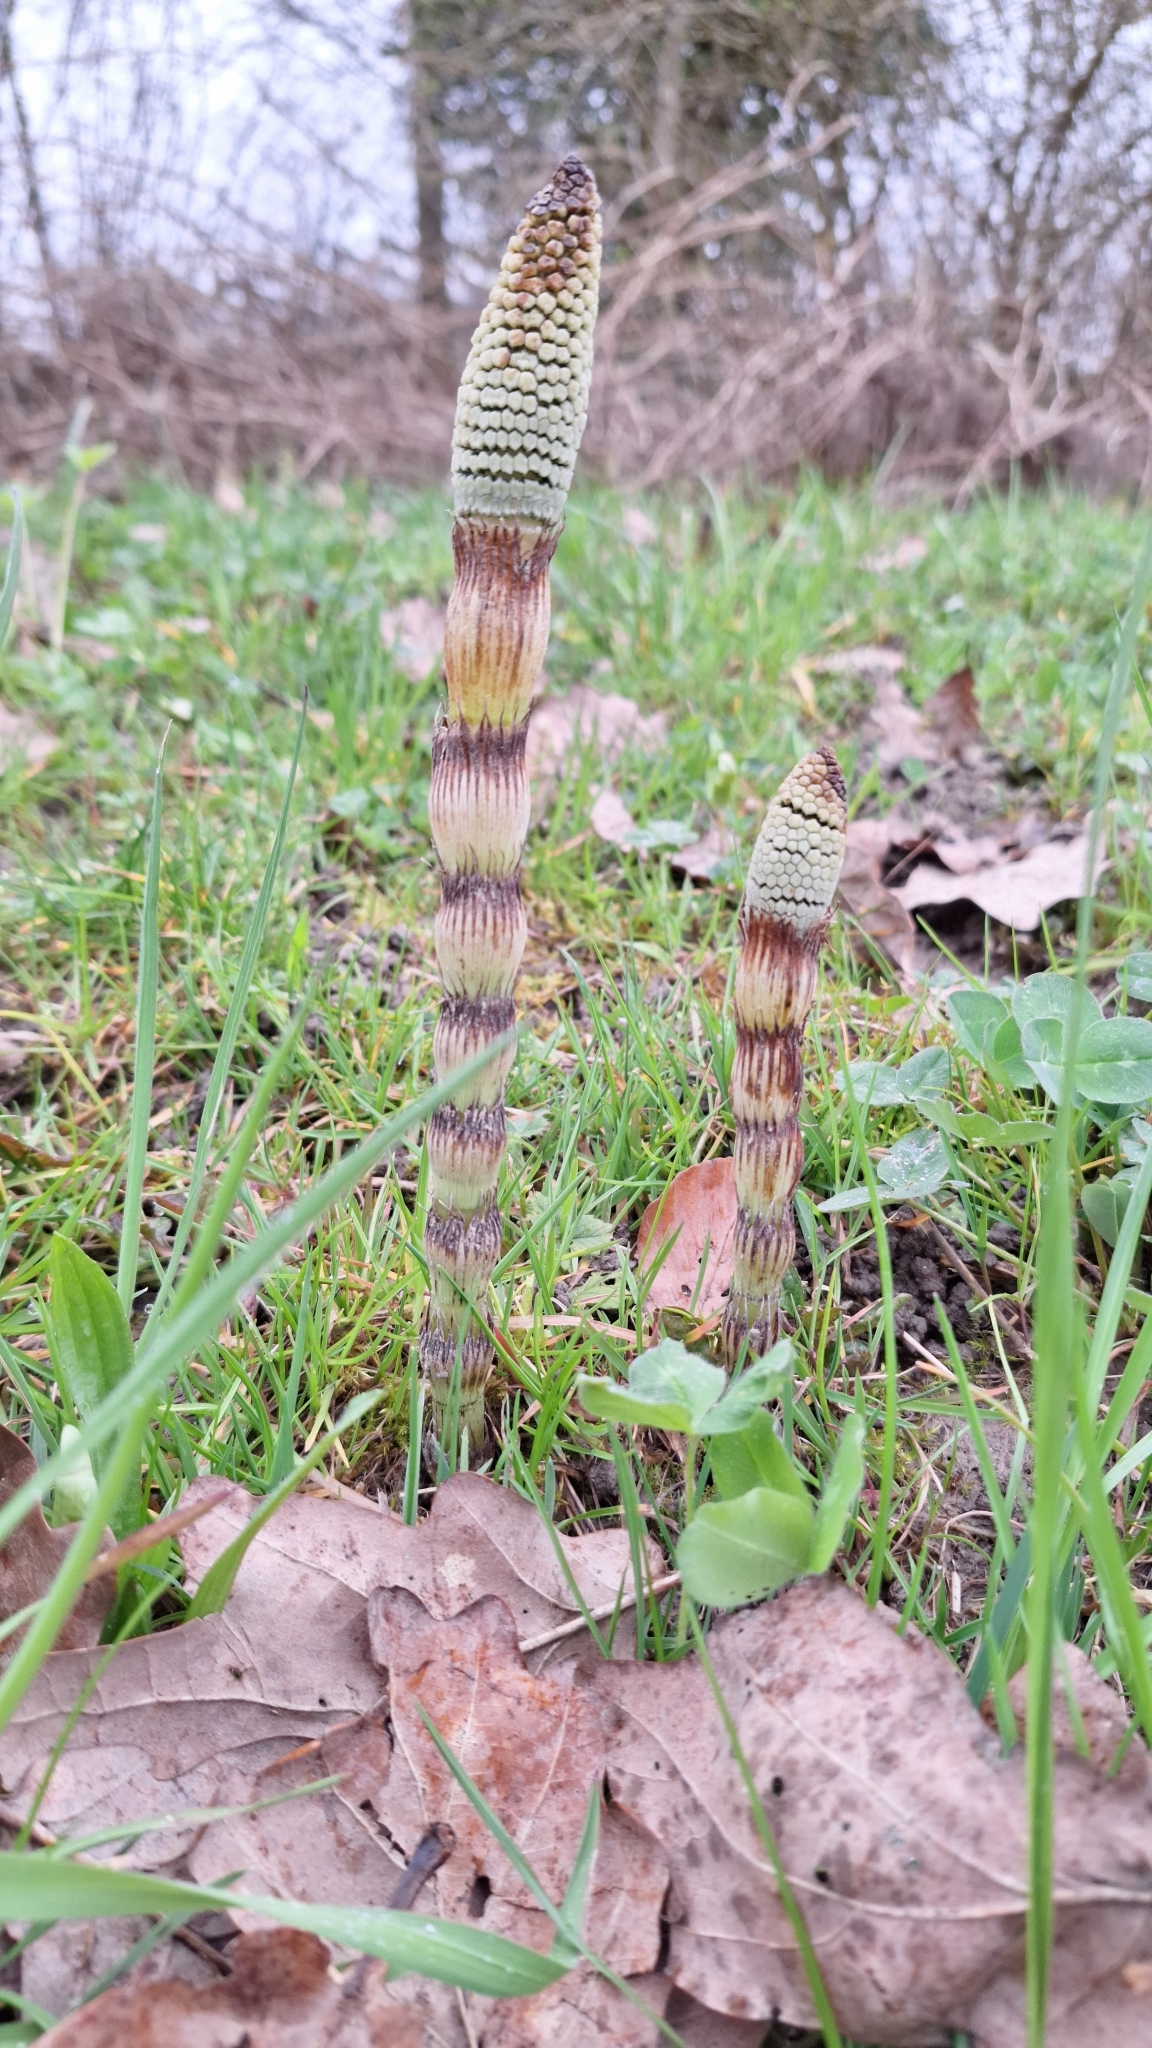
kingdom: Plantae
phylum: Tracheophyta
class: Polypodiopsida
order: Equisetales
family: Equisetaceae
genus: Equisetum
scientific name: Equisetum telmateia
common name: Great horsetail
